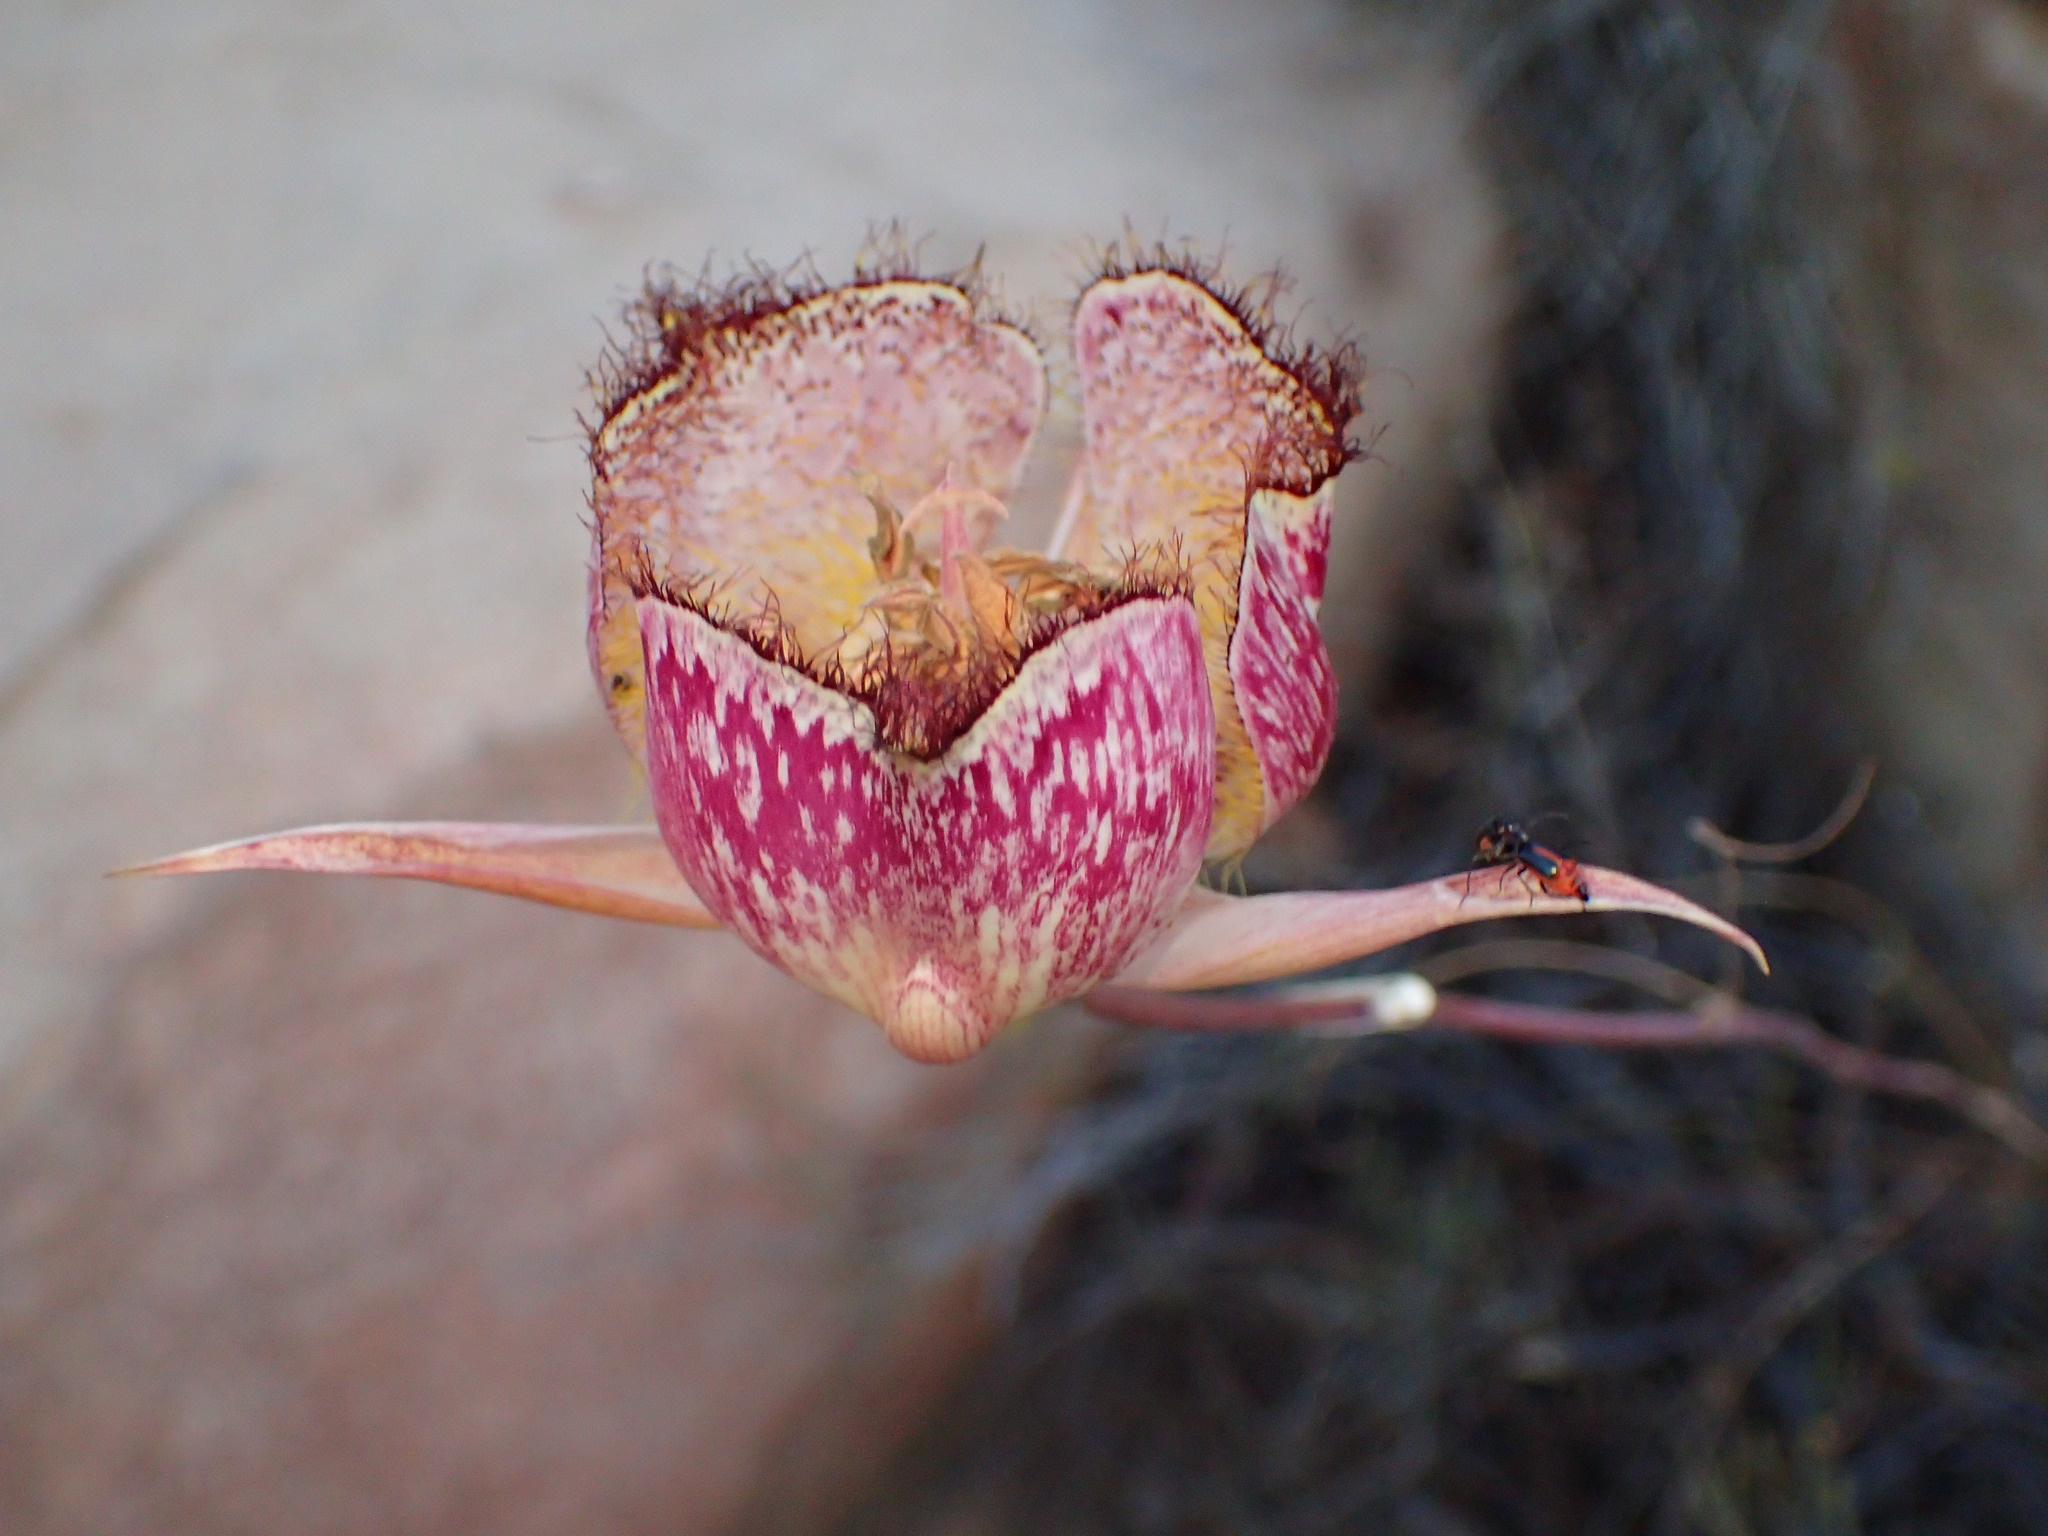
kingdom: Plantae
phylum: Tracheophyta
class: Liliopsida
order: Liliales
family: Liliaceae
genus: Calochortus
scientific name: Calochortus fimbriatus
